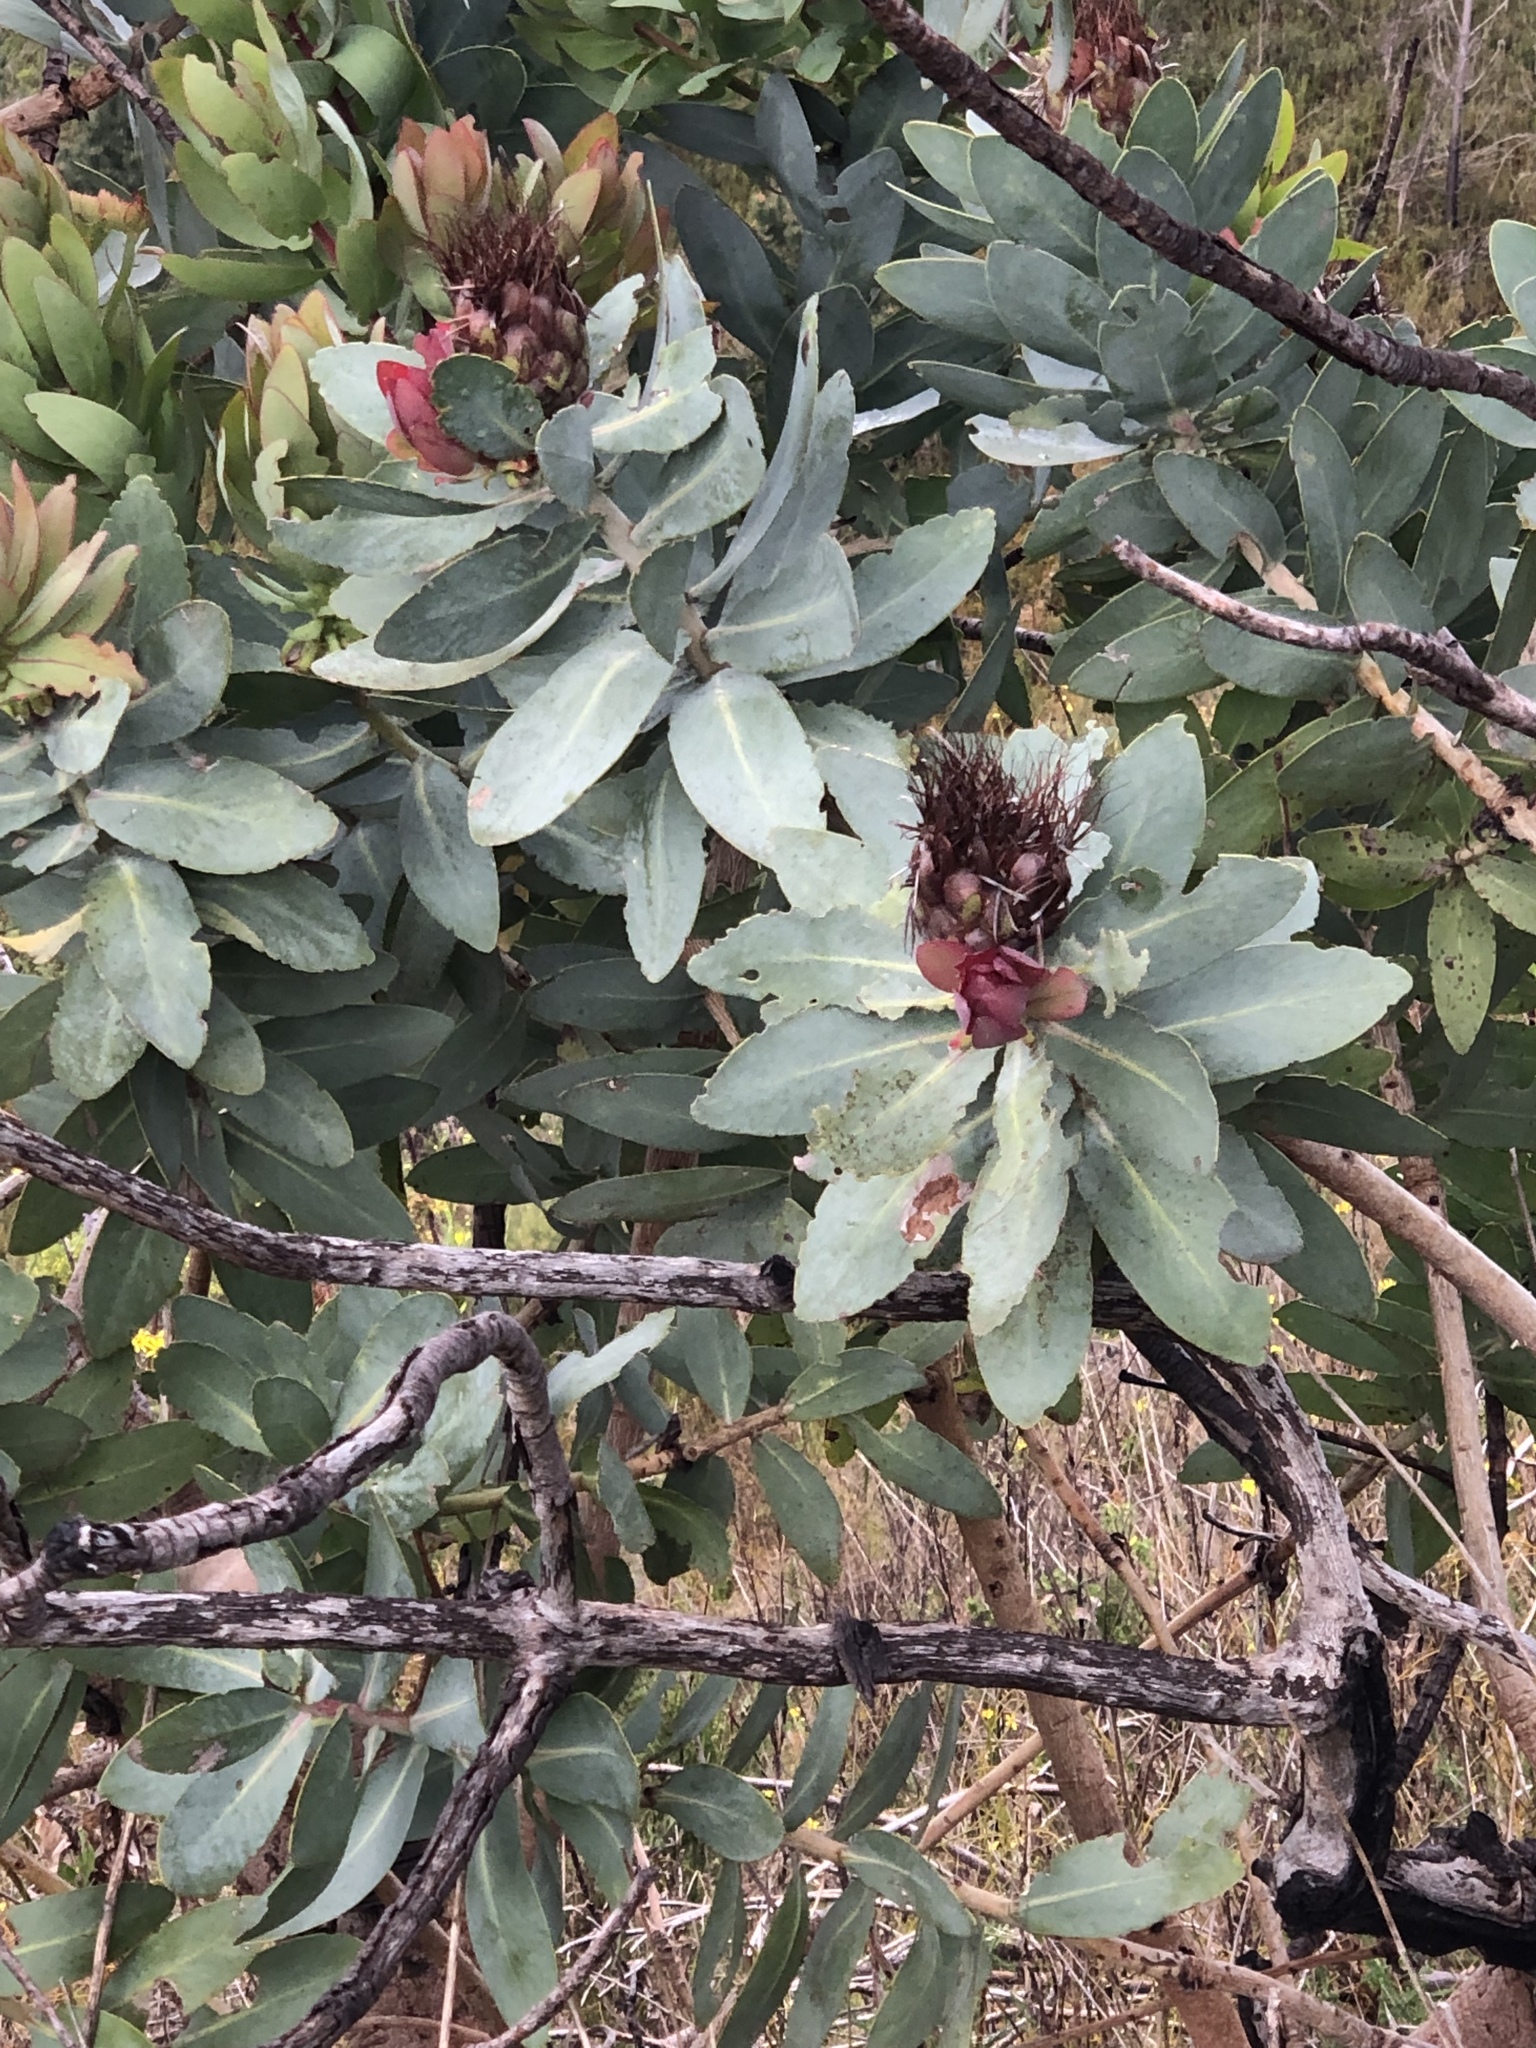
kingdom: Plantae
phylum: Tracheophyta
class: Magnoliopsida
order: Proteales
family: Proteaceae
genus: Protea
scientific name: Protea nitida
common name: Tree protea
